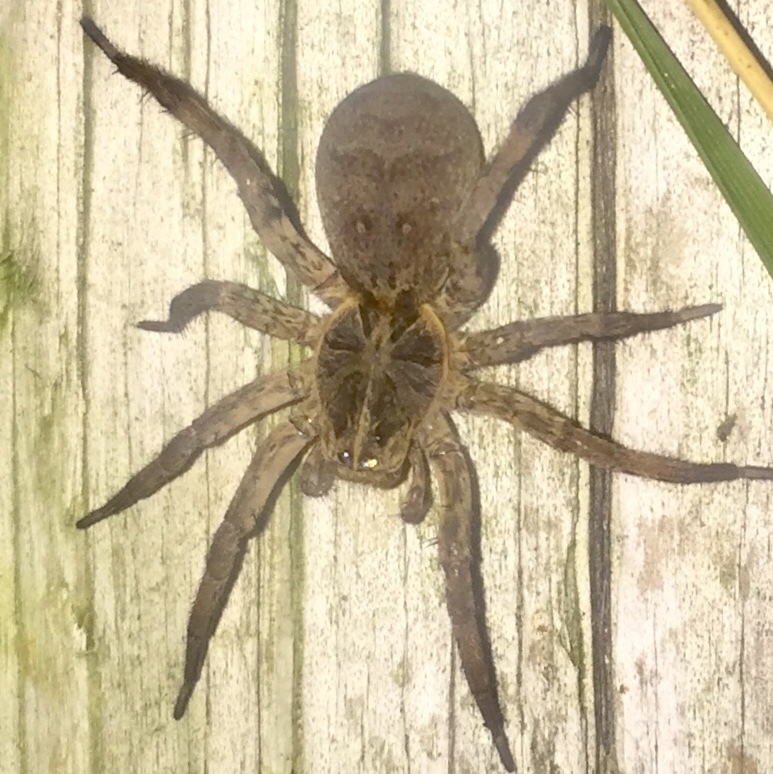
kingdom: Animalia
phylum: Arthropoda
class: Arachnida
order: Araneae
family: Lycosidae
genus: Hogna
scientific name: Hogna baltimoriana
